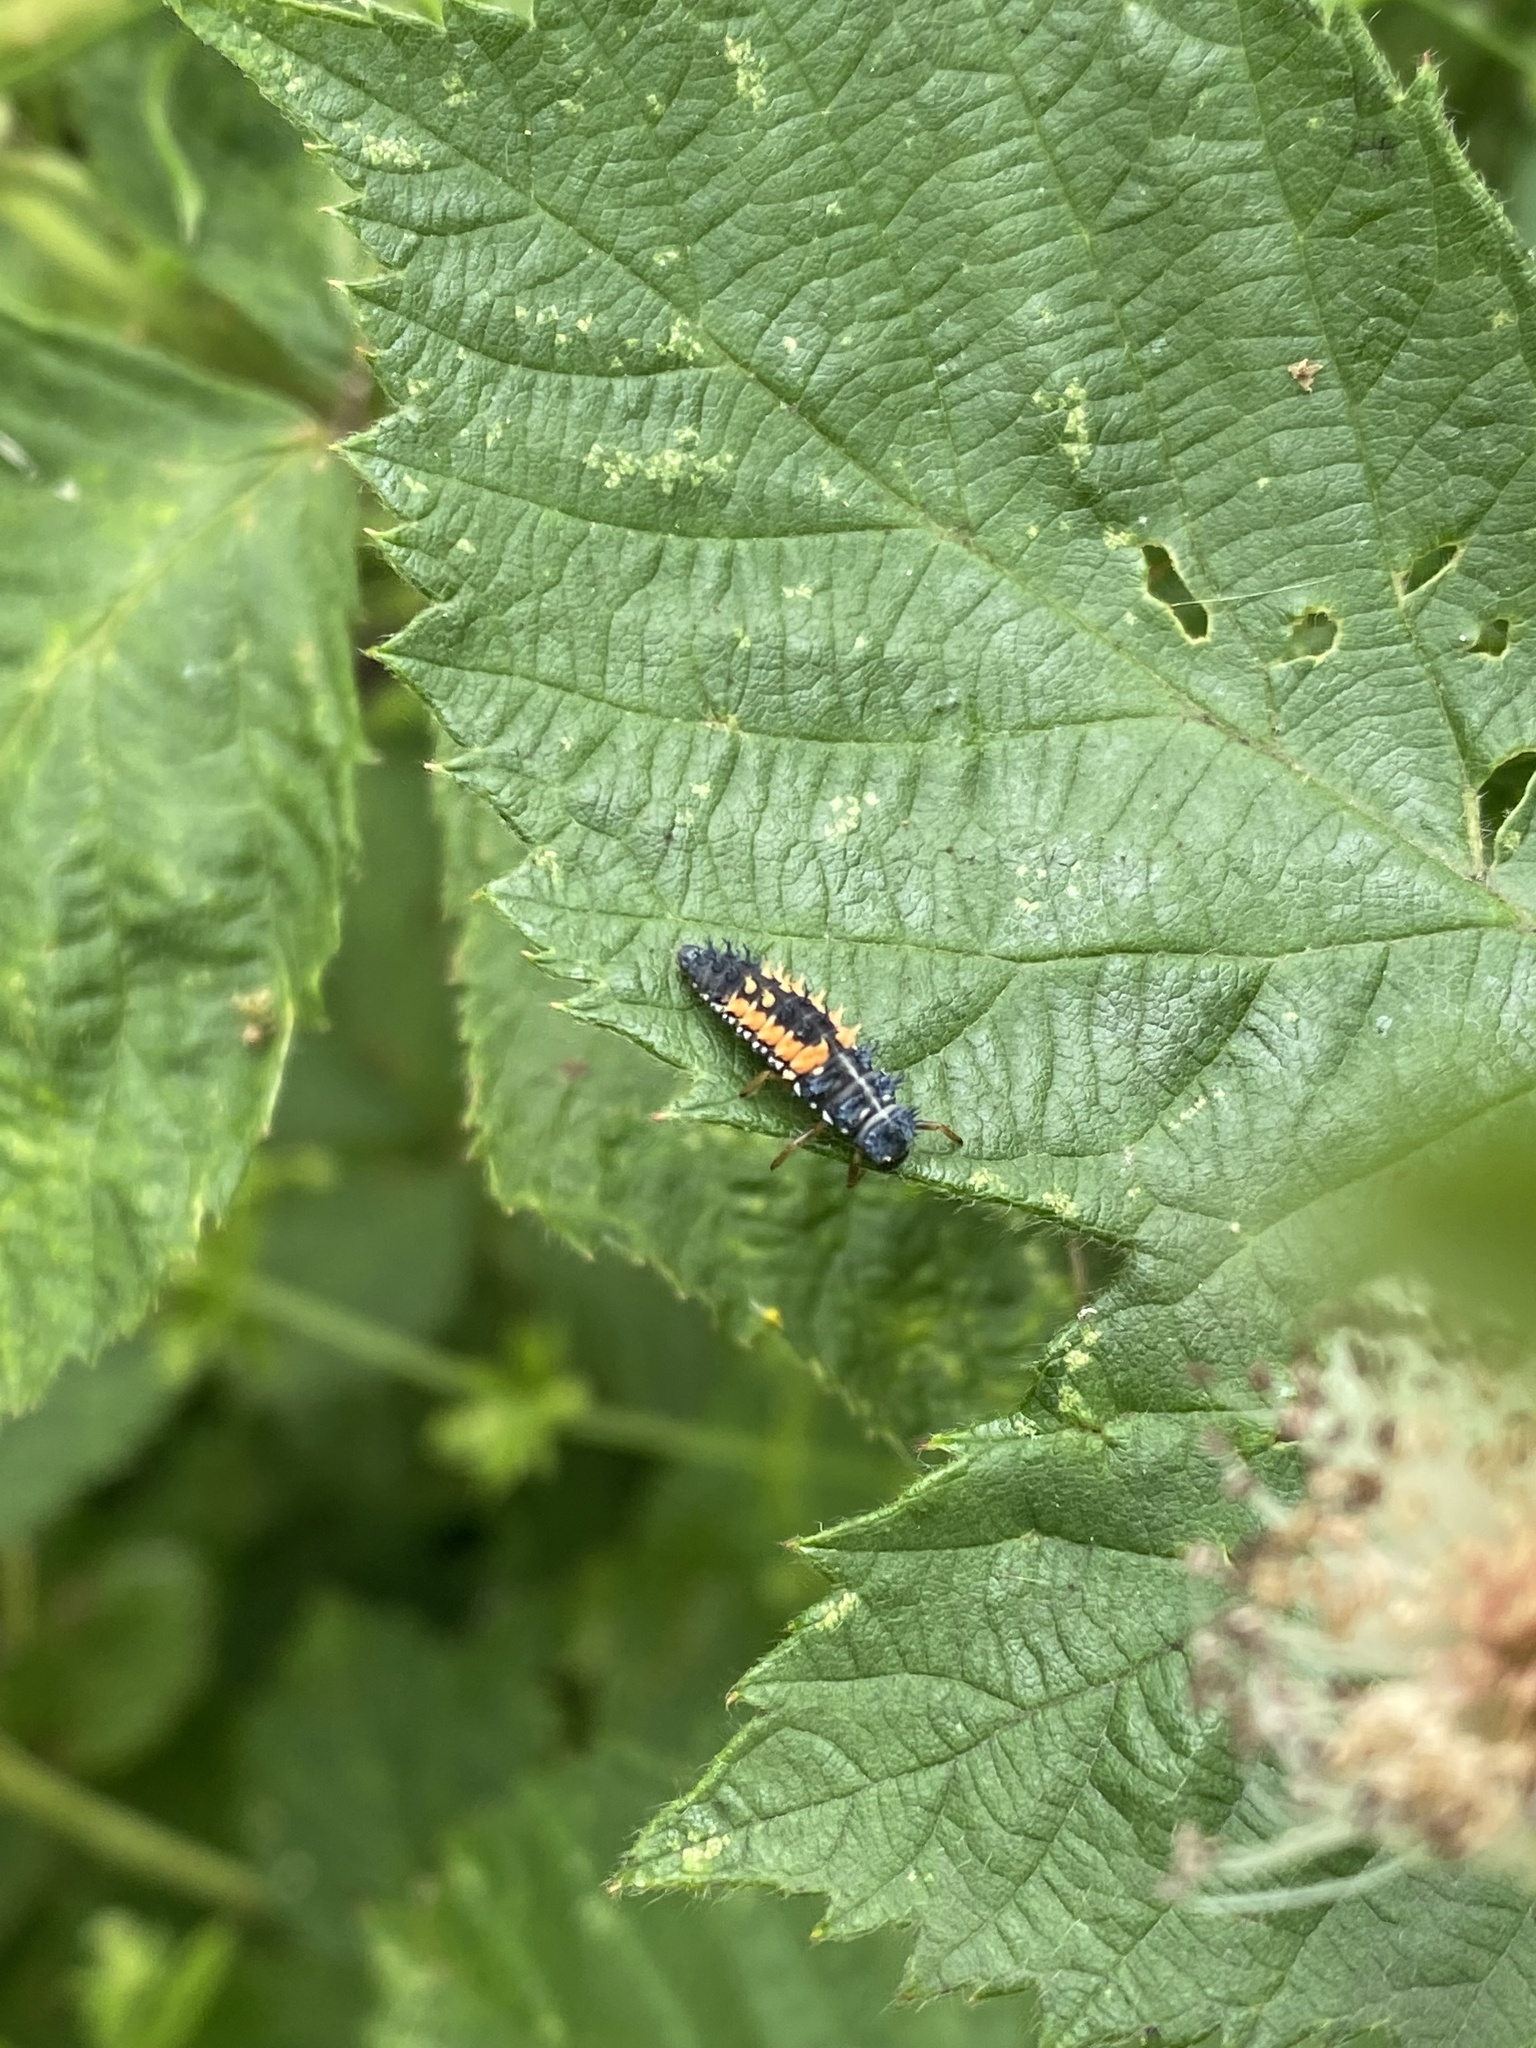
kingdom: Animalia
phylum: Arthropoda
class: Insecta
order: Coleoptera
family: Coccinellidae
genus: Harmonia
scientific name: Harmonia axyridis
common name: Harlequin ladybird
